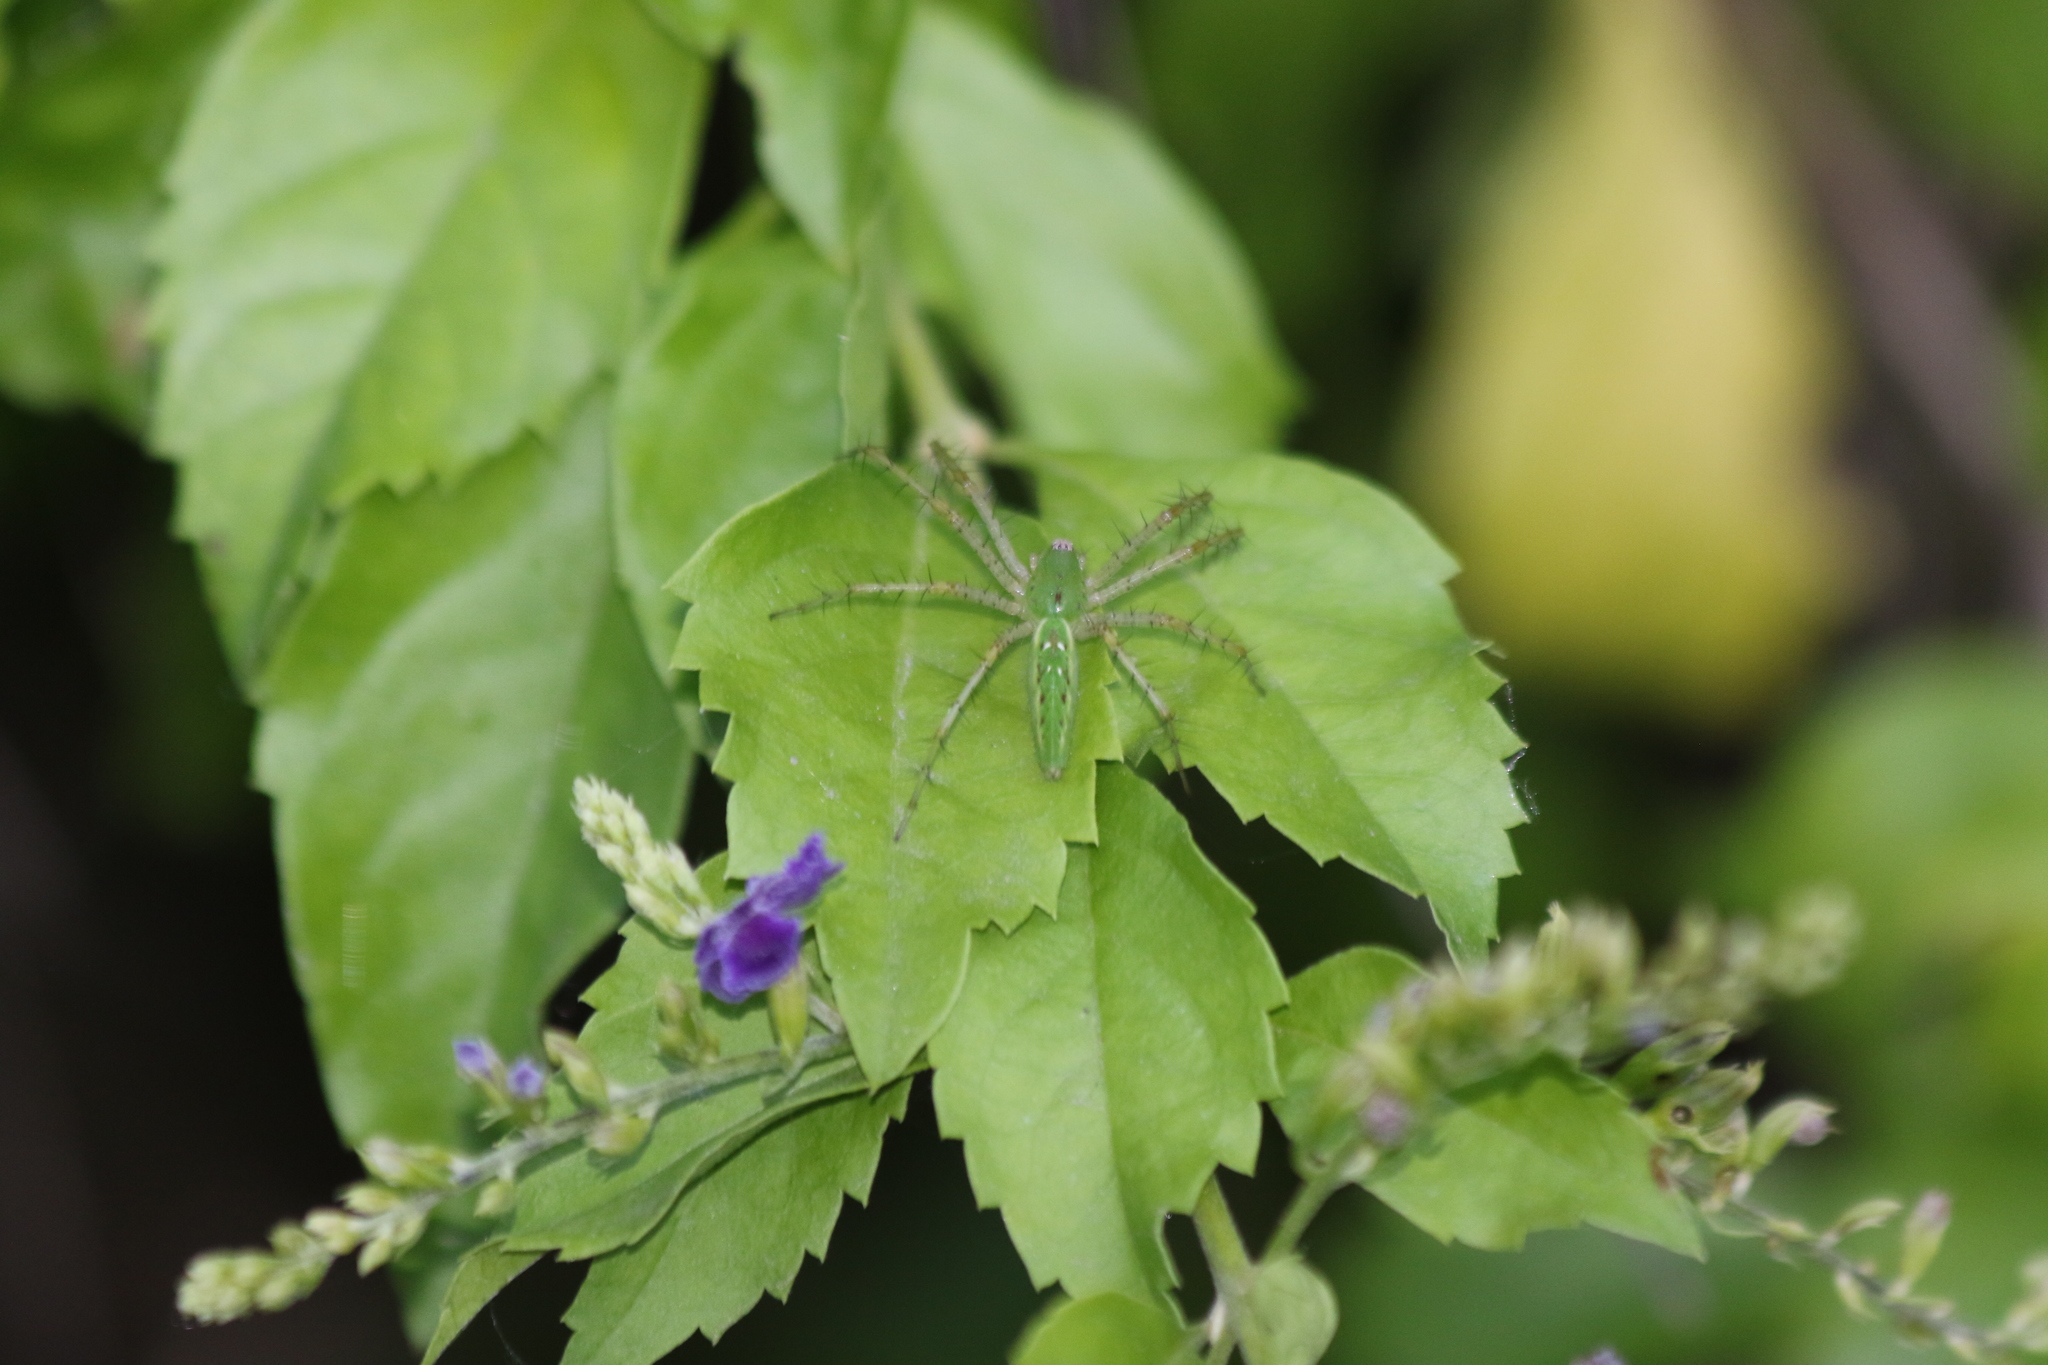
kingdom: Animalia
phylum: Arthropoda
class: Arachnida
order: Araneae
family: Oxyopidae
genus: Peucetia
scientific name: Peucetia viridans
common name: Lynx spiders
